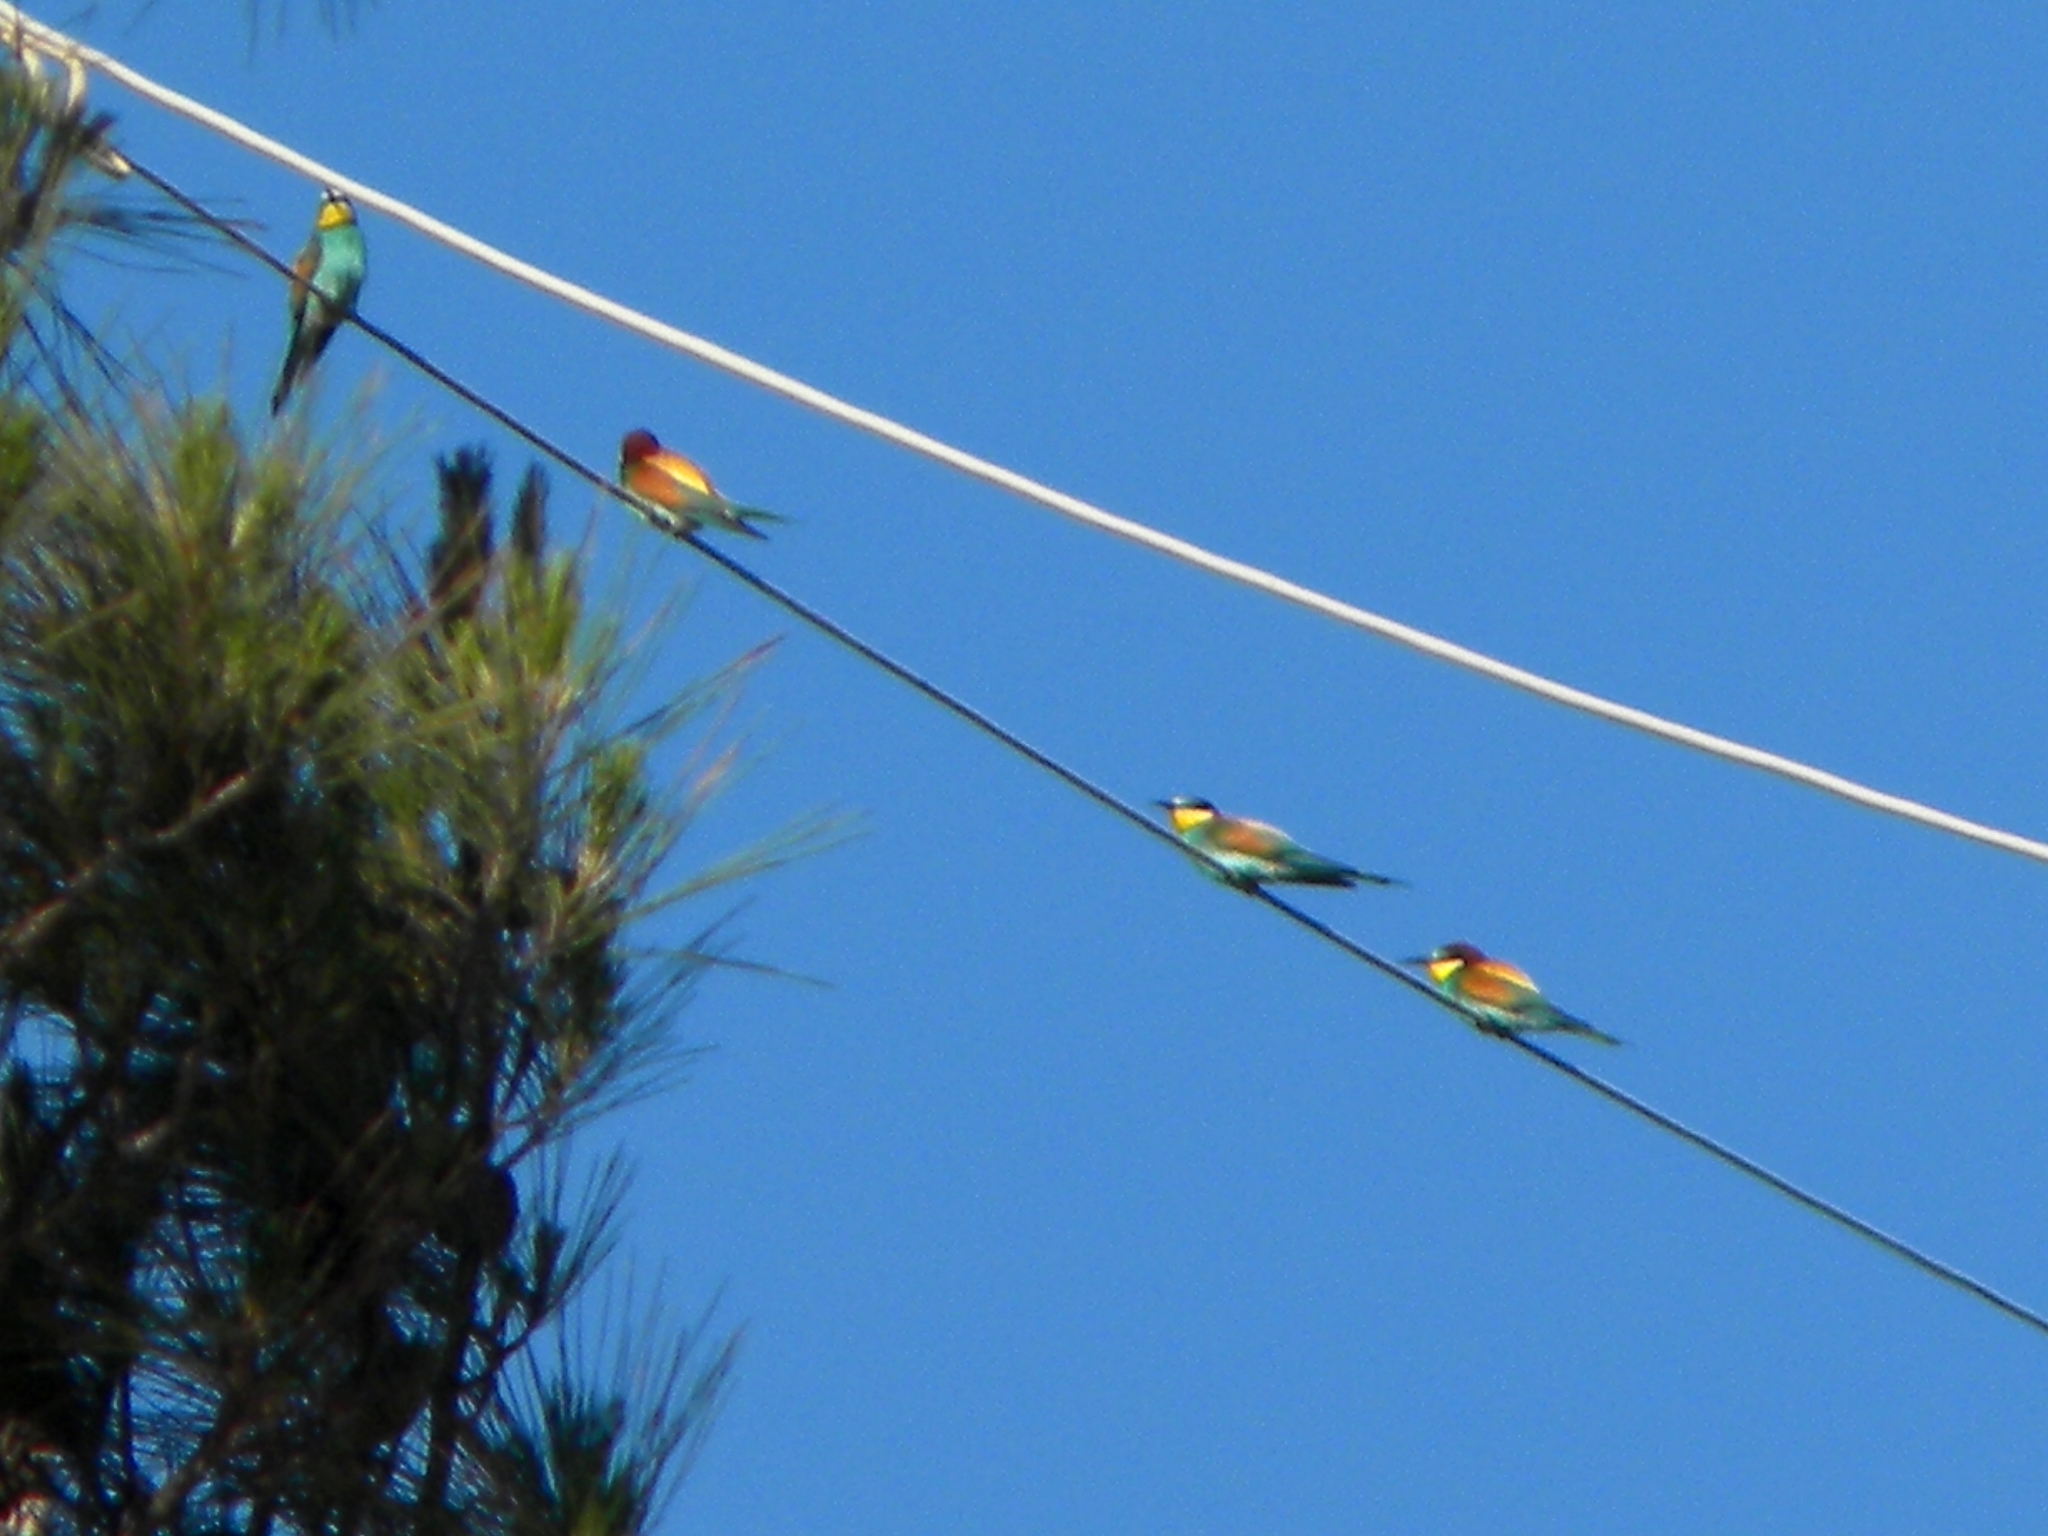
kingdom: Animalia
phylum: Chordata
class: Aves
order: Coraciiformes
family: Meropidae
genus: Merops
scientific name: Merops apiaster
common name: European bee-eater
